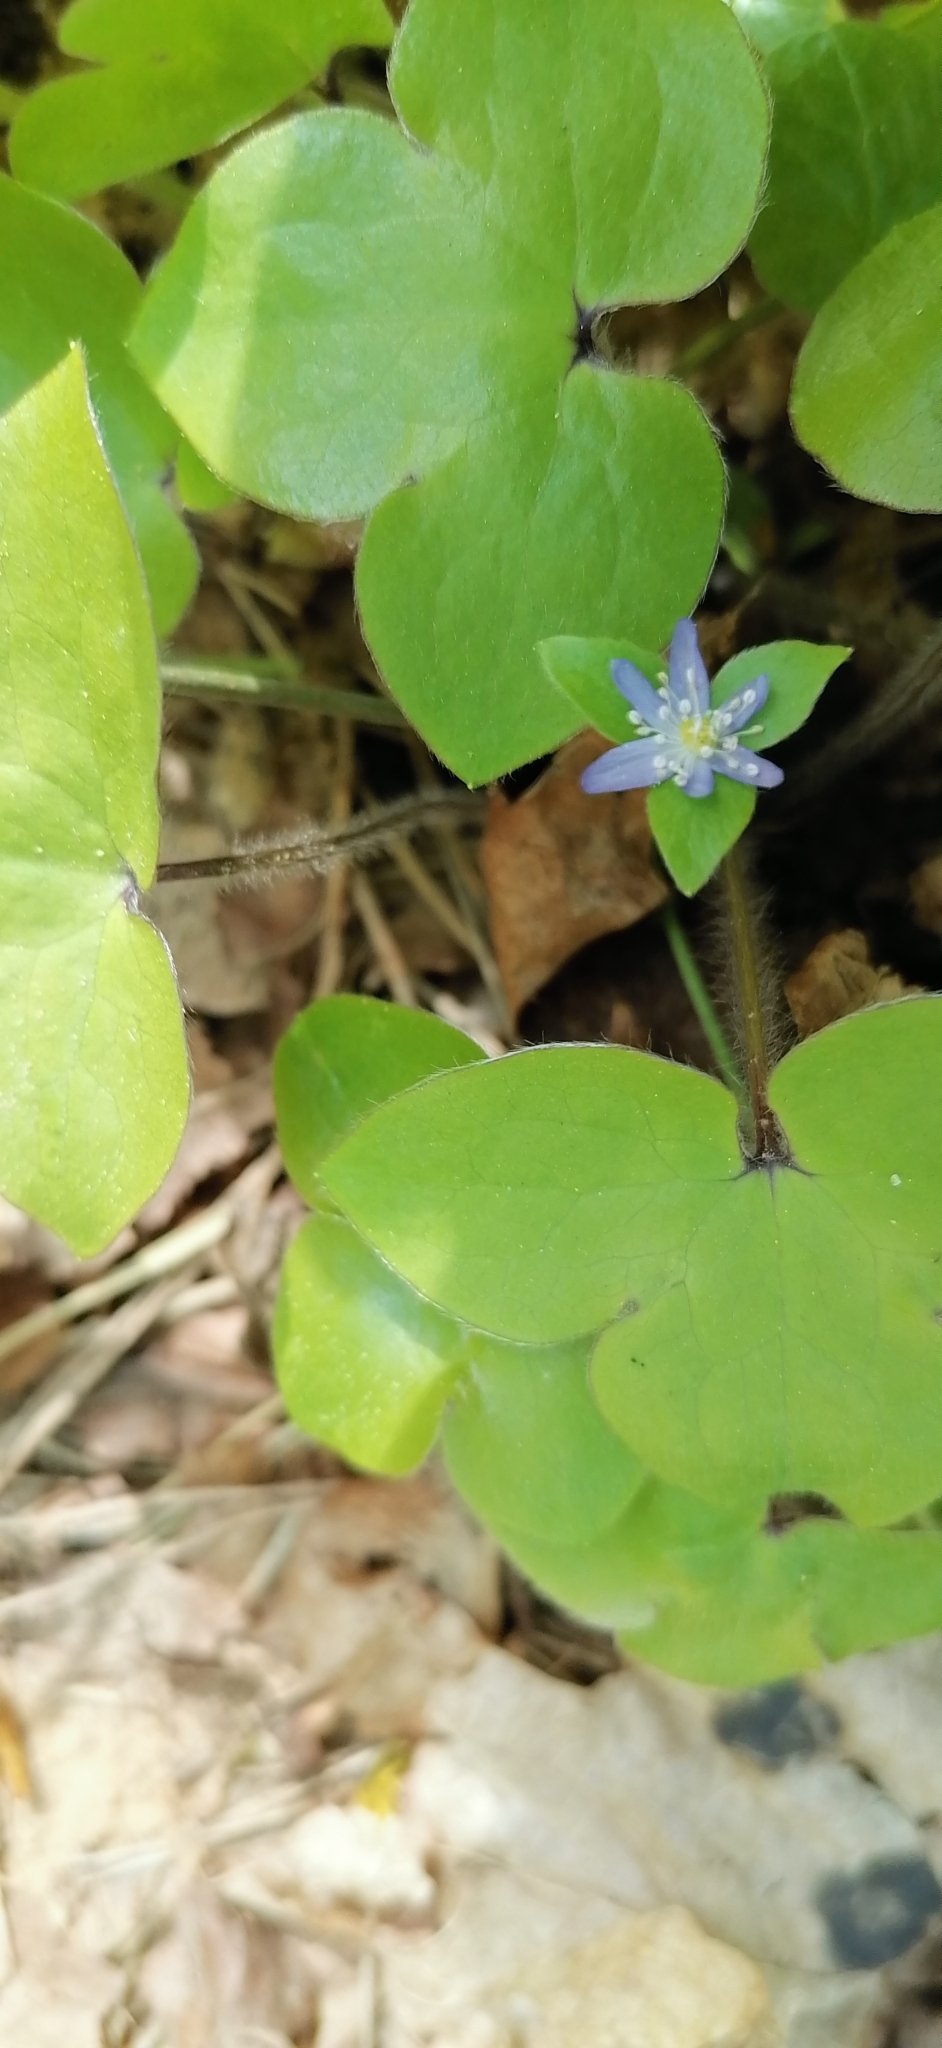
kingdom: Plantae
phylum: Tracheophyta
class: Magnoliopsida
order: Ranunculales
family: Ranunculaceae
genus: Hepatica
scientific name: Hepatica nobilis
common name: Liverleaf
